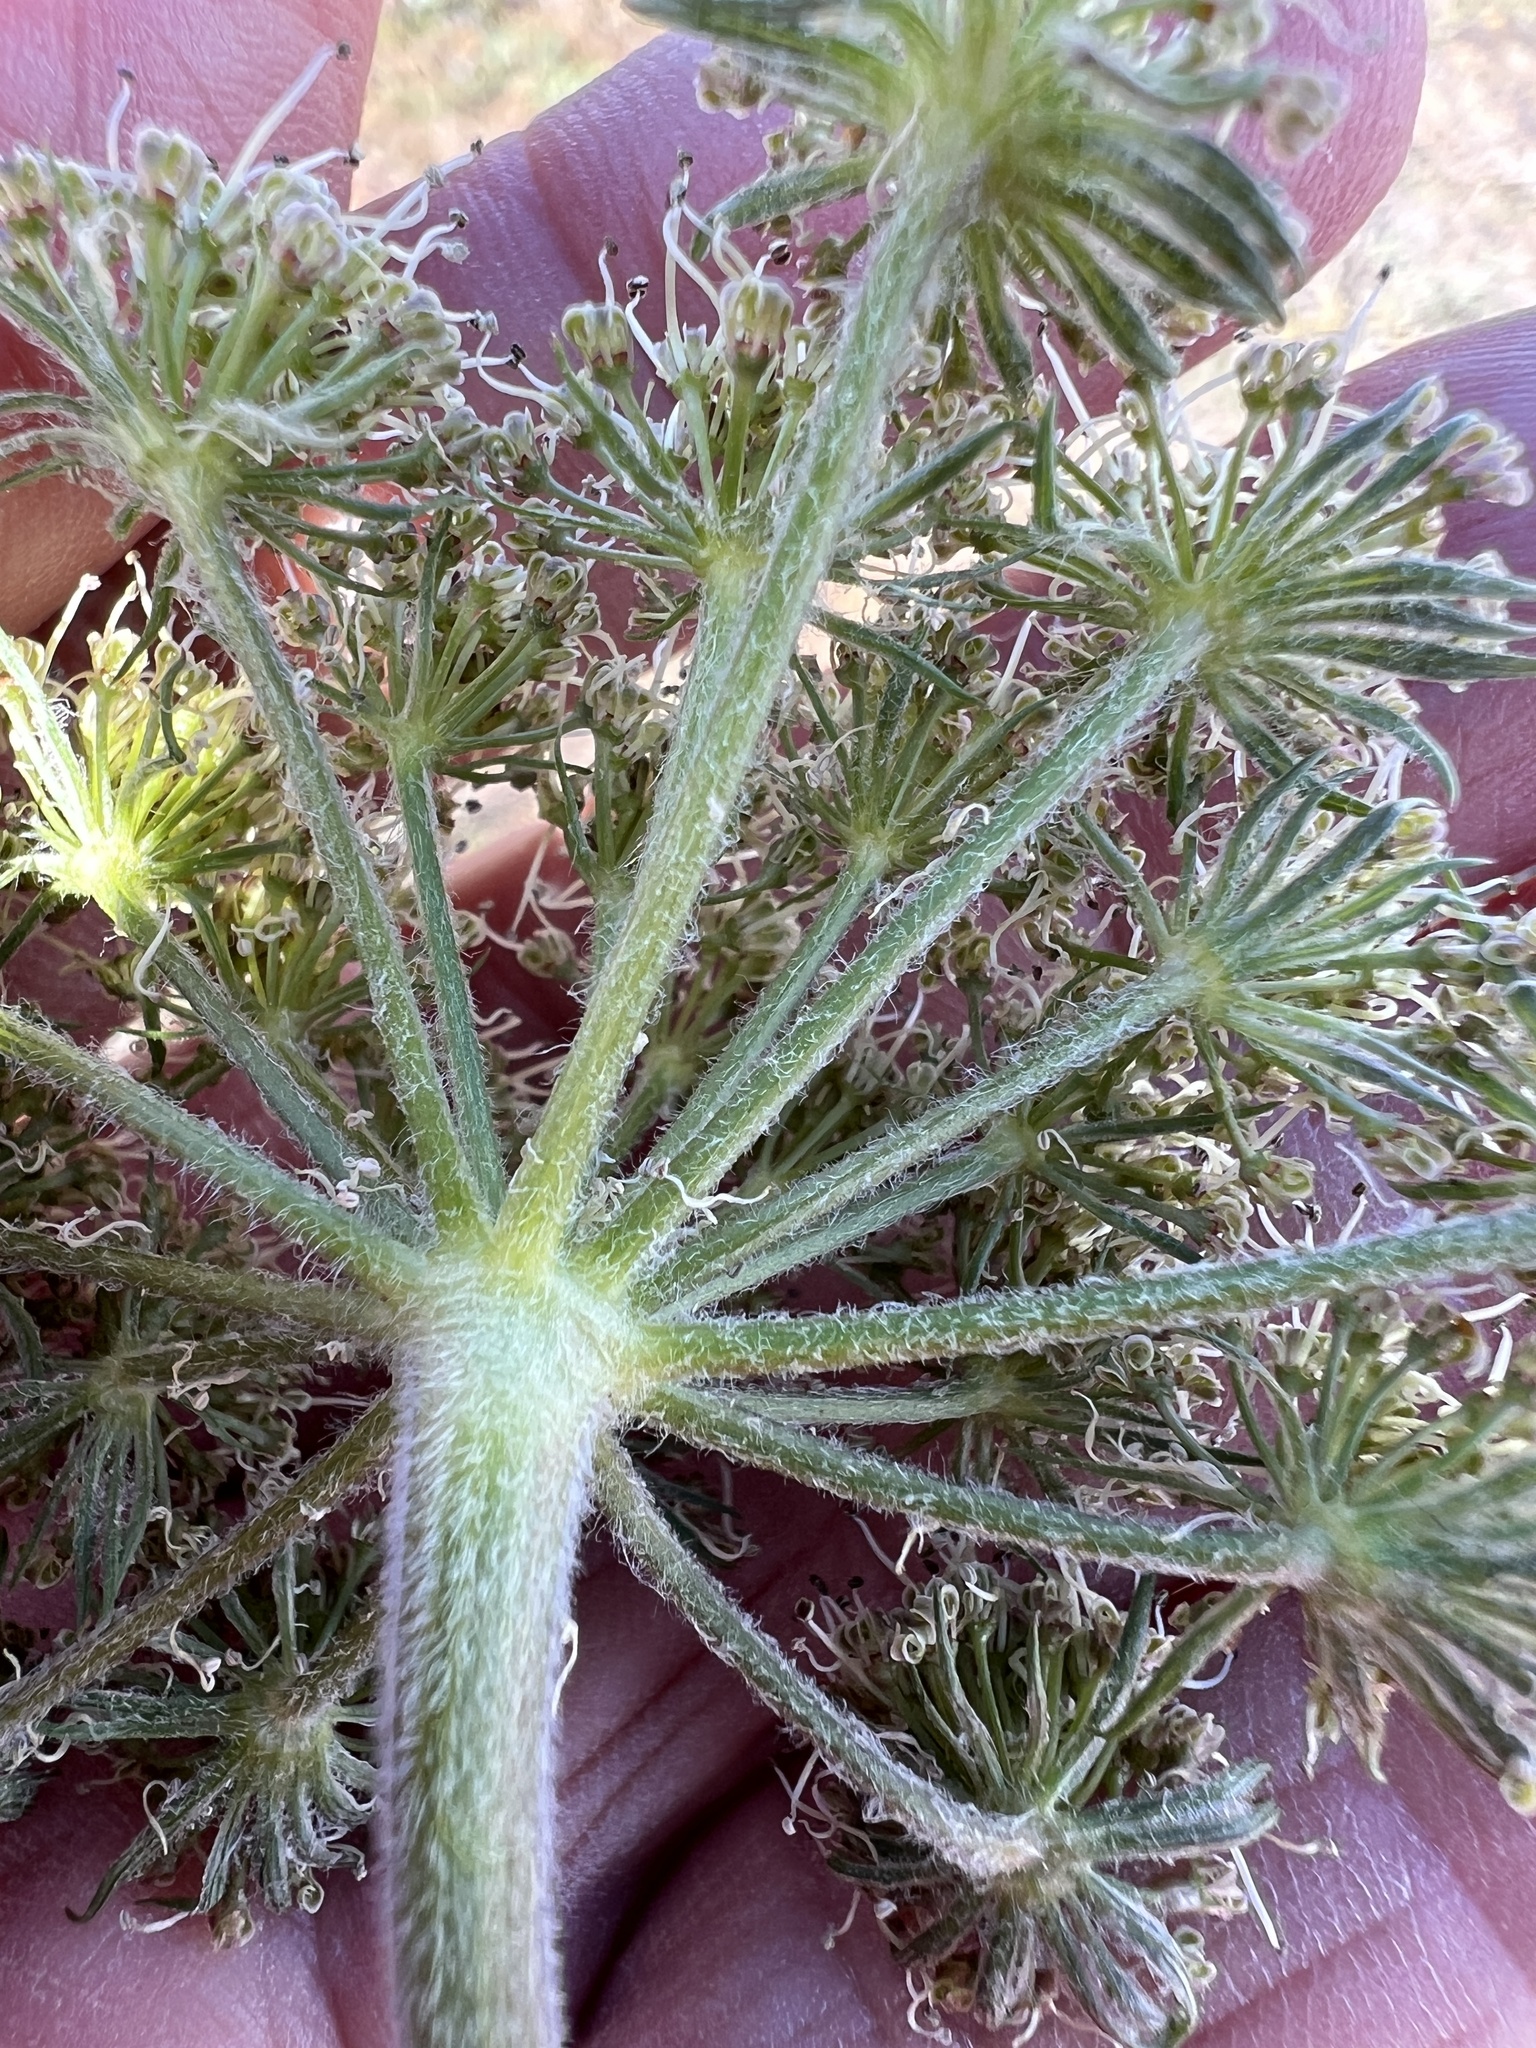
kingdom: Plantae
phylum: Tracheophyta
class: Magnoliopsida
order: Apiales
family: Apiaceae
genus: Lomatium
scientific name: Lomatium macrocarpum
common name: Big-seed biscuitroot
